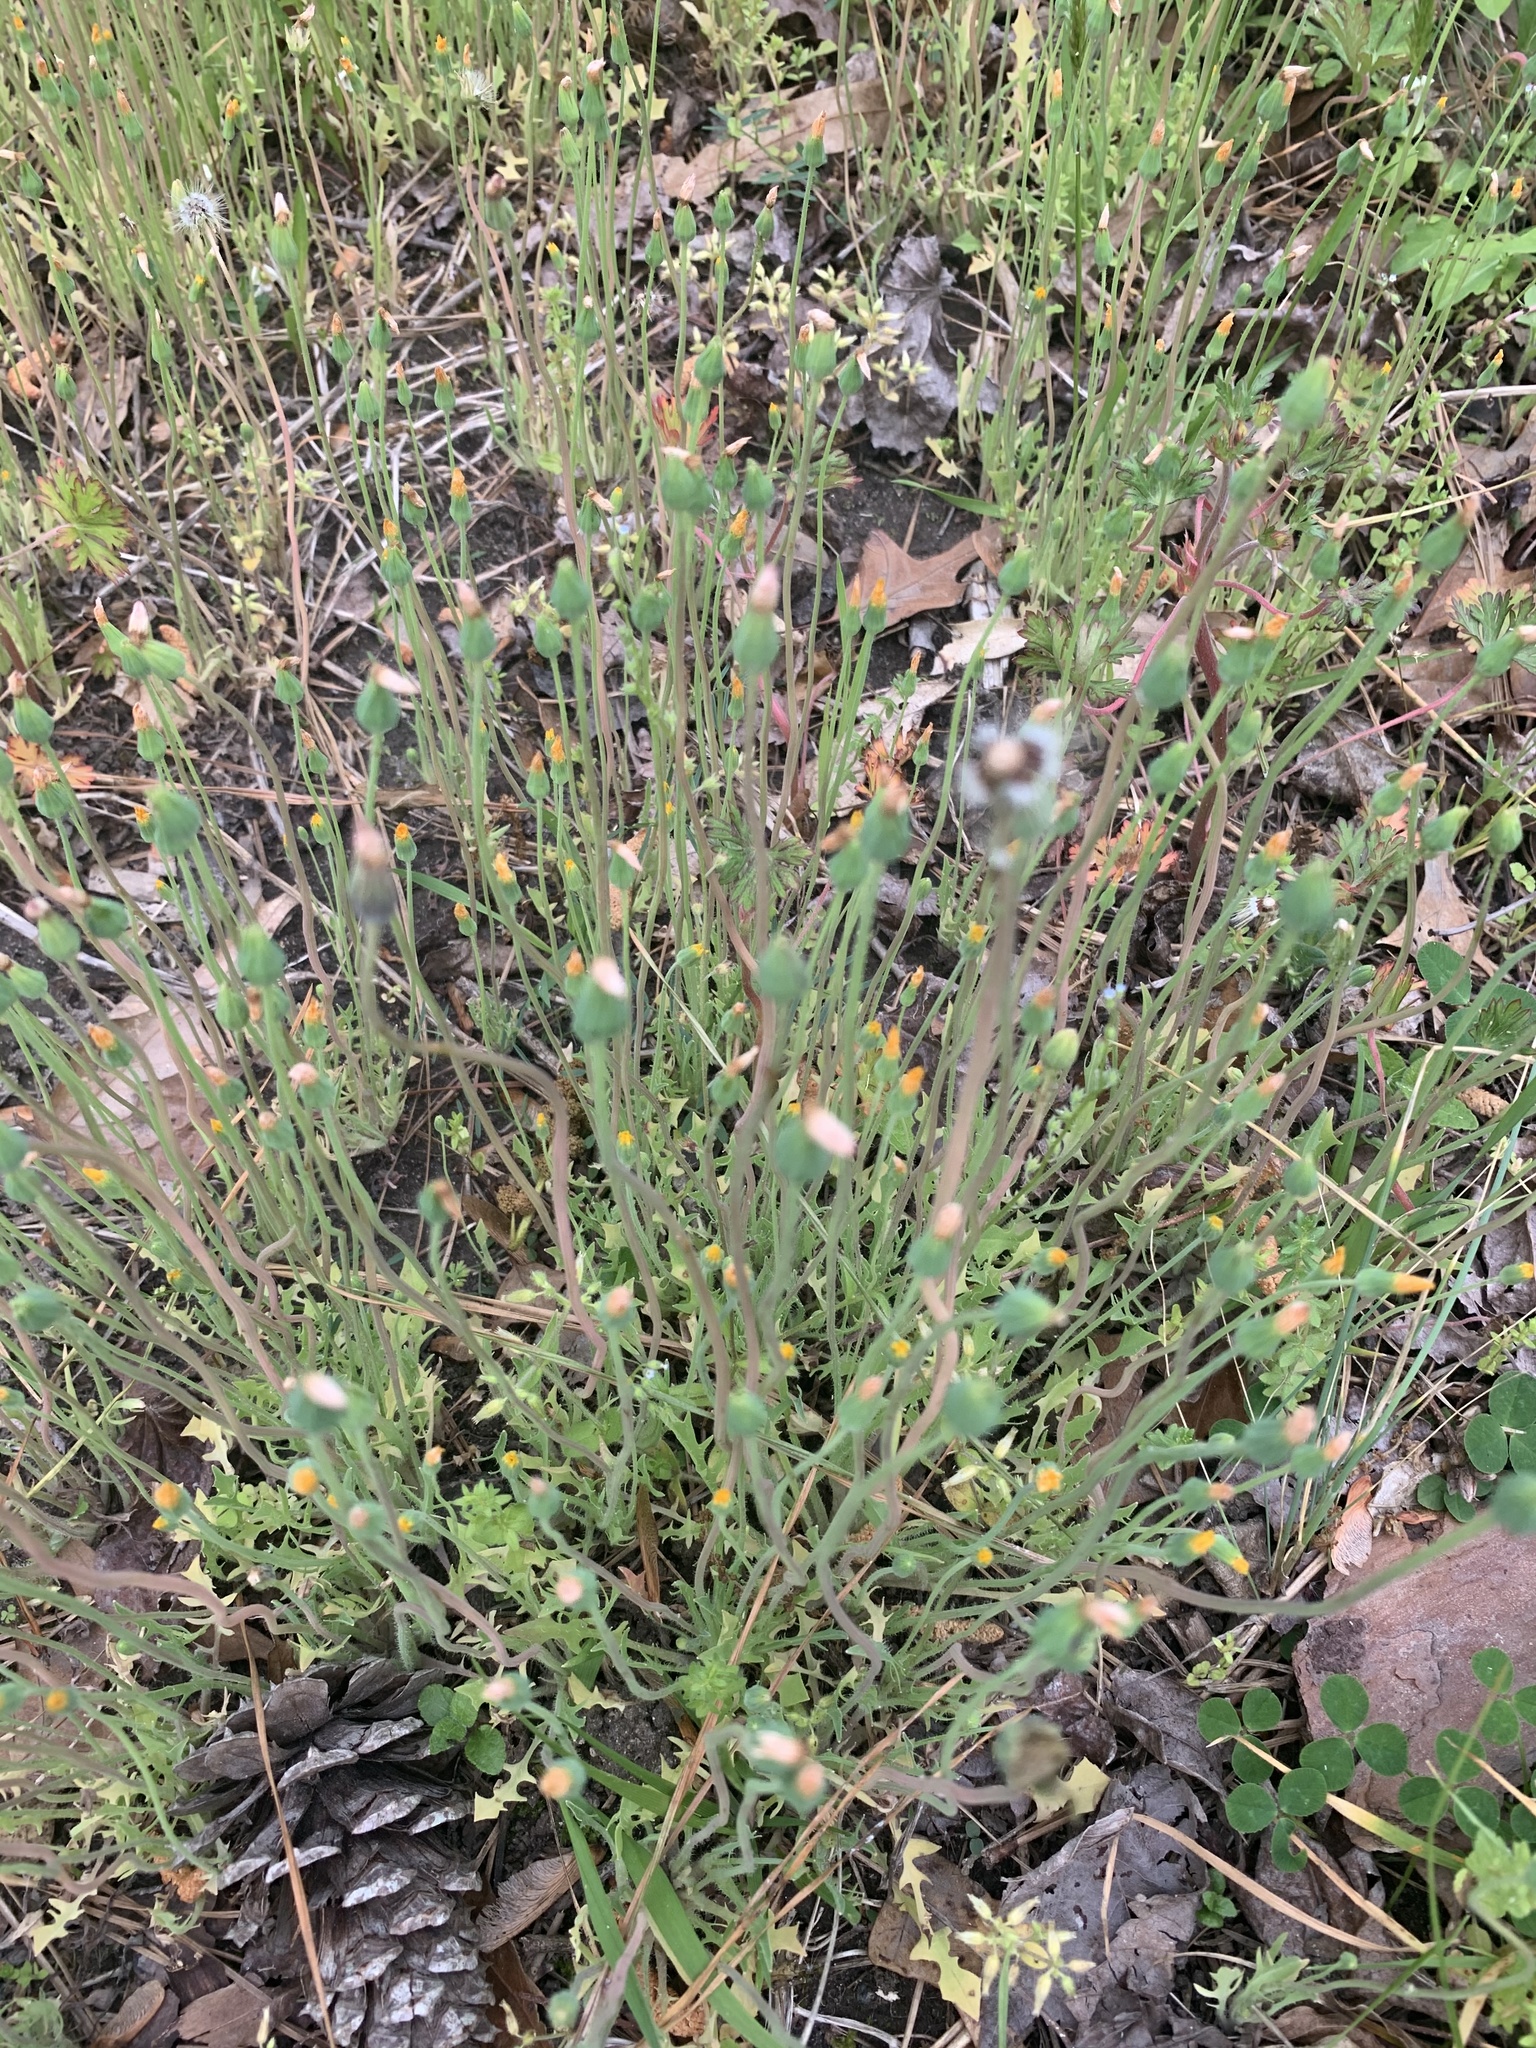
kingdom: Plantae
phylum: Tracheophyta
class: Magnoliopsida
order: Asterales
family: Asteraceae
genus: Krigia
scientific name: Krigia virginica
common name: Virginia dwarf-dandelion
